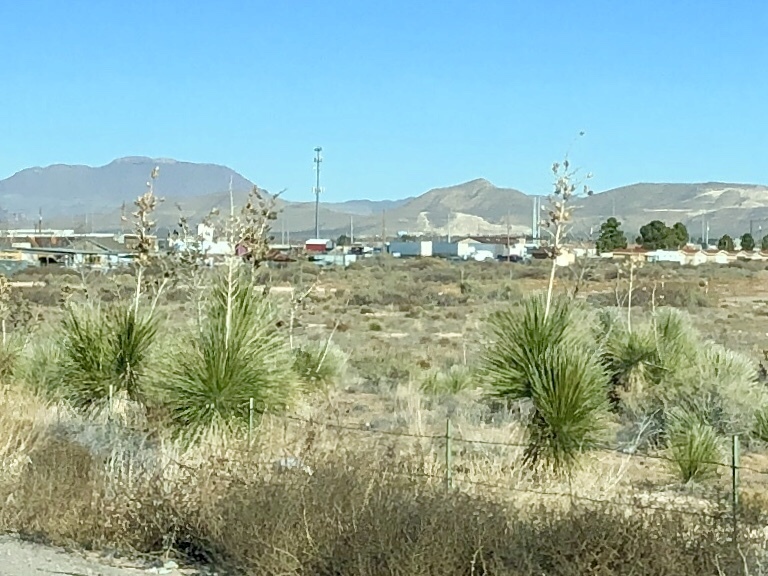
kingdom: Plantae
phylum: Tracheophyta
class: Liliopsida
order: Asparagales
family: Asparagaceae
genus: Yucca
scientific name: Yucca elata
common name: Palmella
